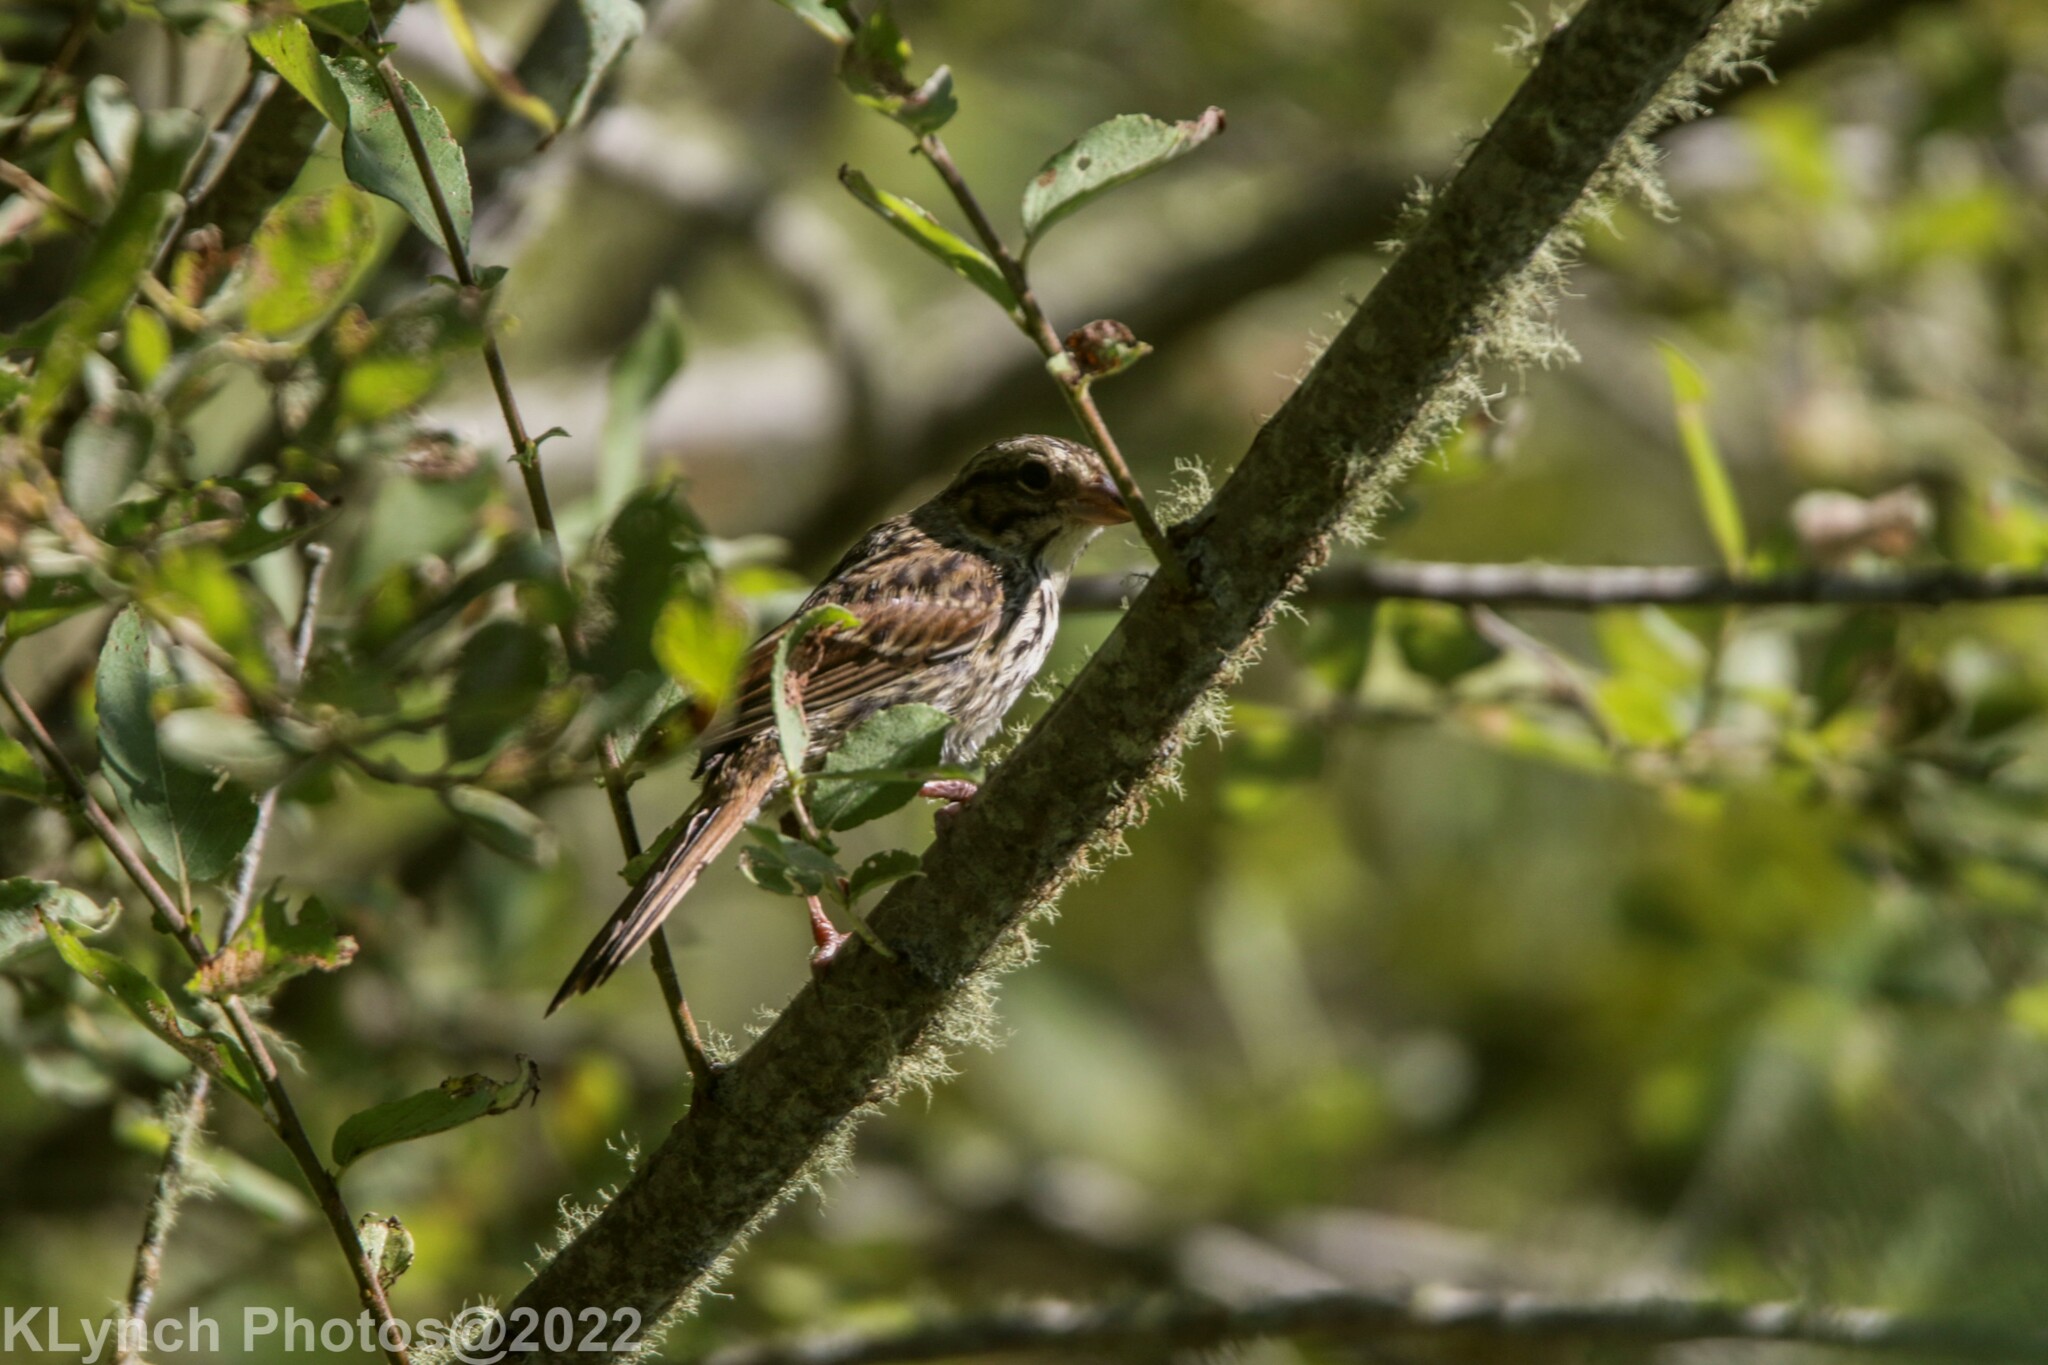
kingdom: Animalia
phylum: Chordata
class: Aves
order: Passeriformes
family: Passerellidae
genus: Melospiza
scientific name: Melospiza melodia
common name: Song sparrow
